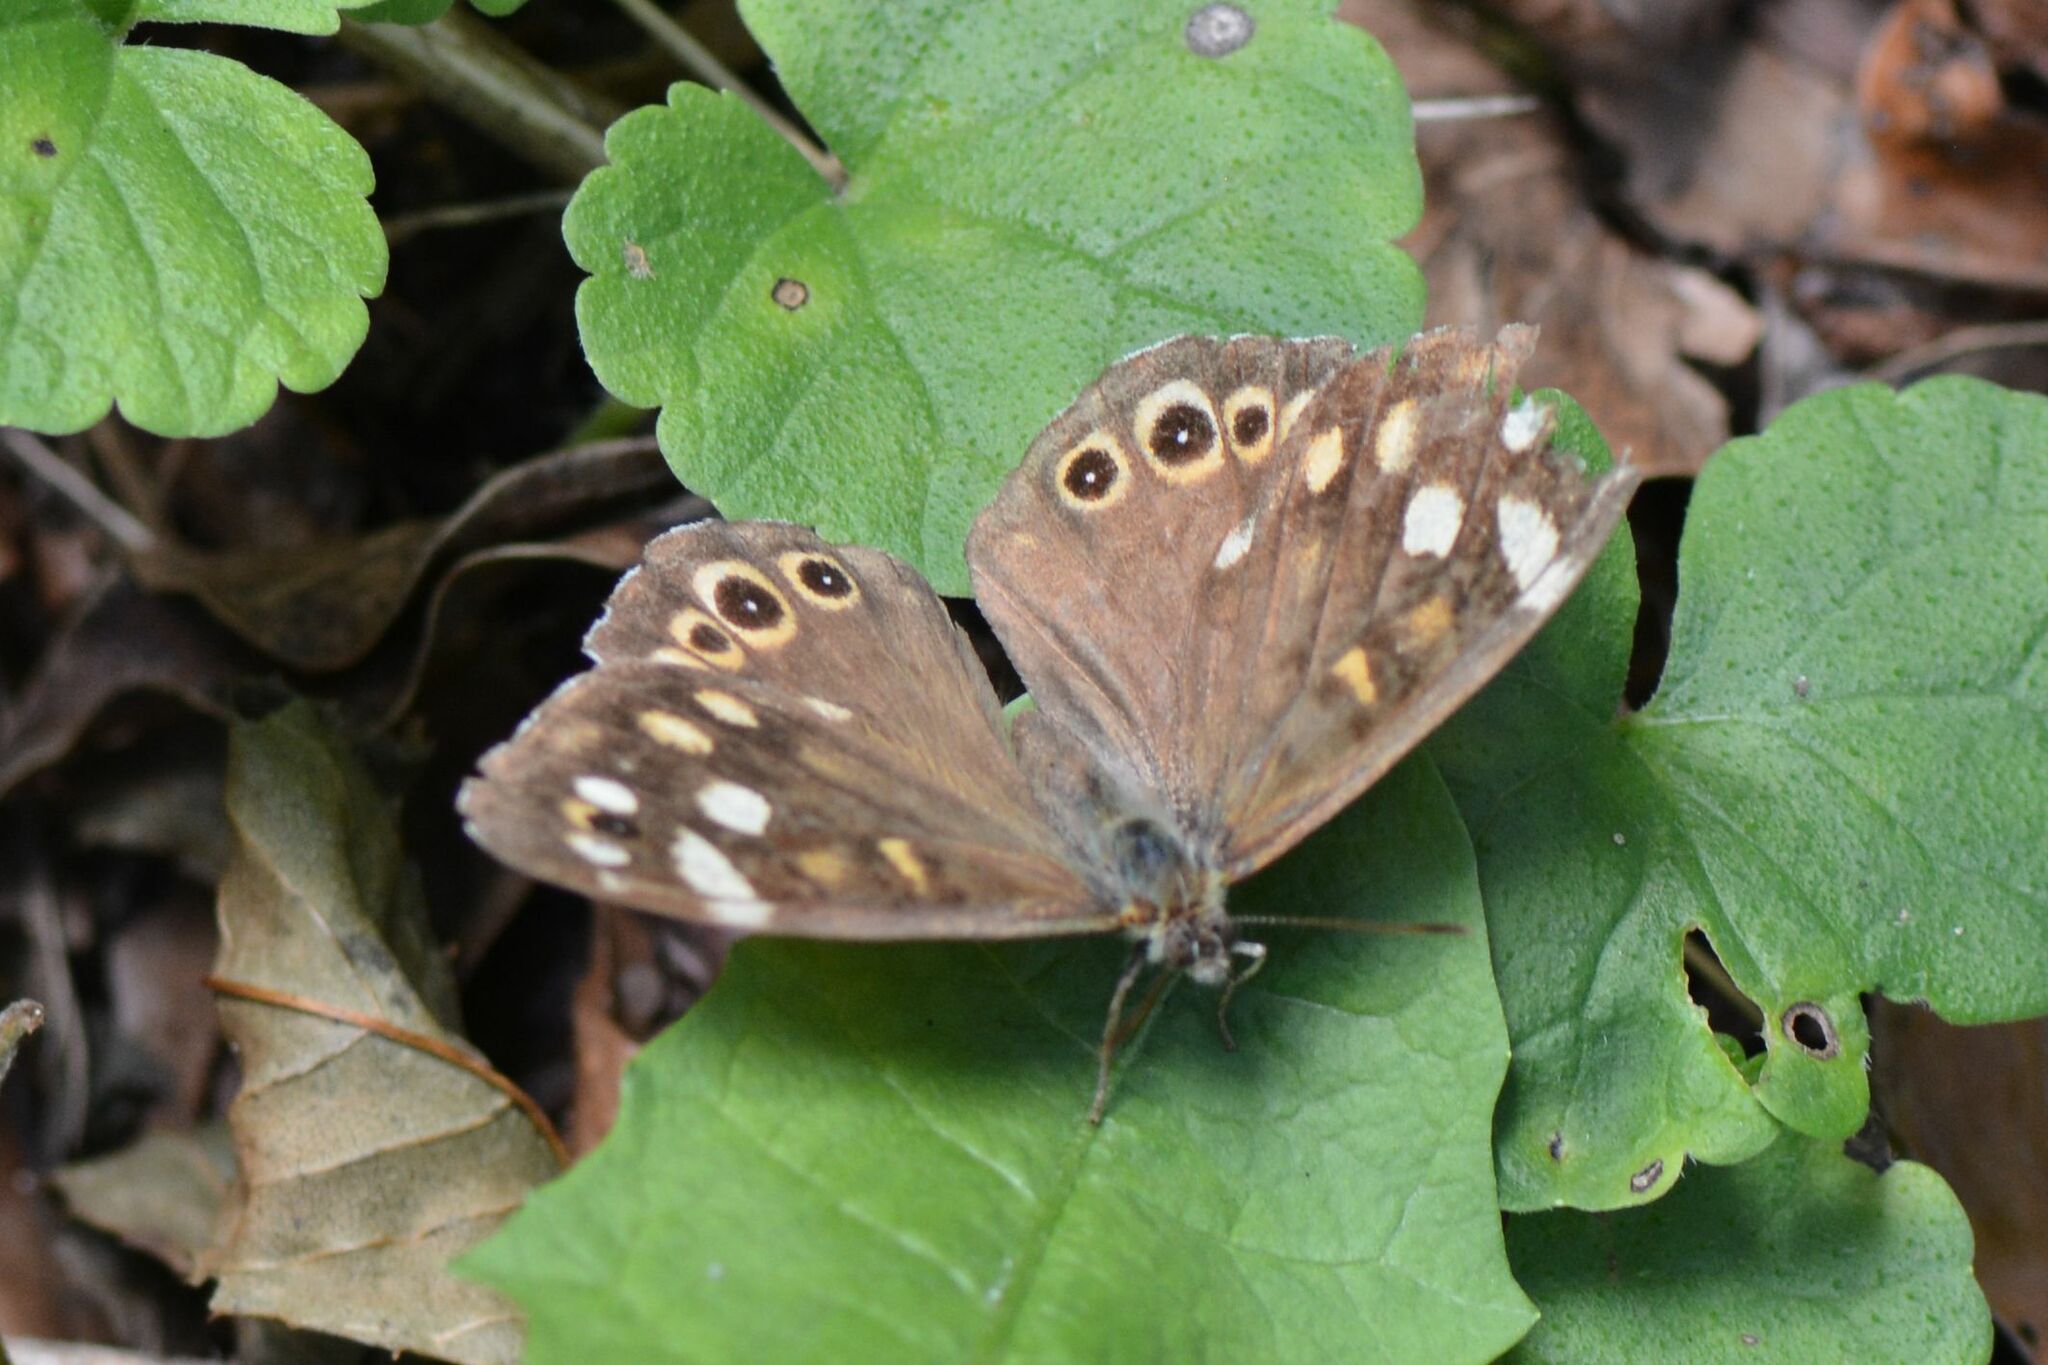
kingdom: Animalia
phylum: Arthropoda
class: Insecta
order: Lepidoptera
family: Nymphalidae
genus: Pararge
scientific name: Pararge aegeria
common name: Speckled wood
